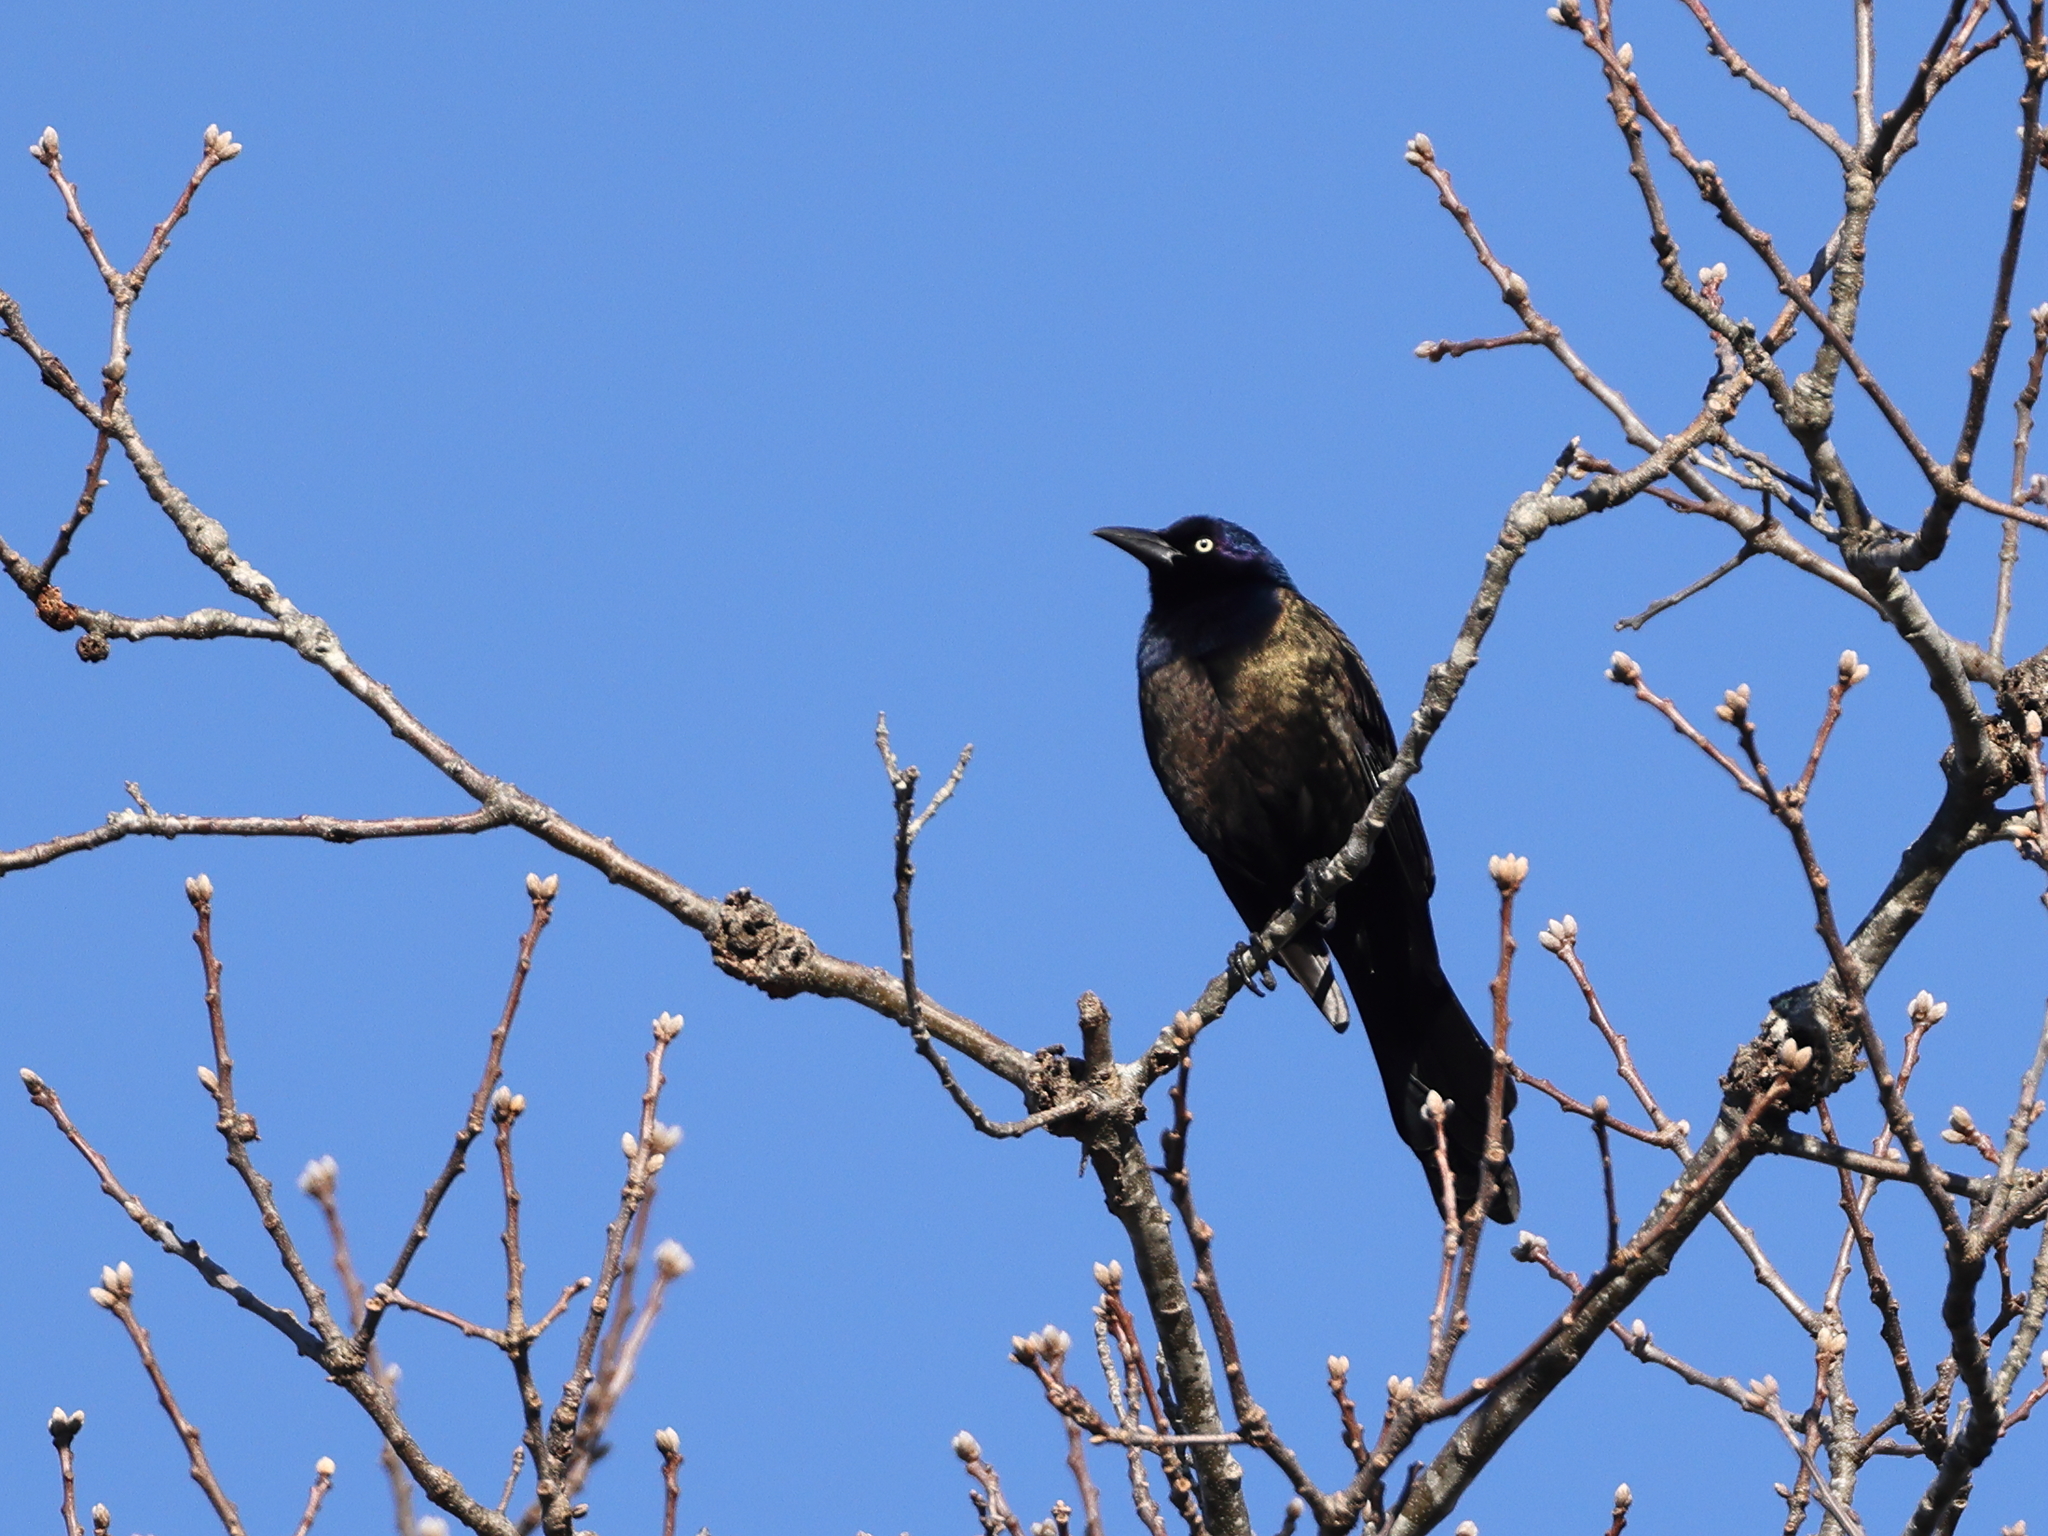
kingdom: Animalia
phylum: Chordata
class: Aves
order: Passeriformes
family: Icteridae
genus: Quiscalus
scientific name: Quiscalus quiscula
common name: Common grackle
